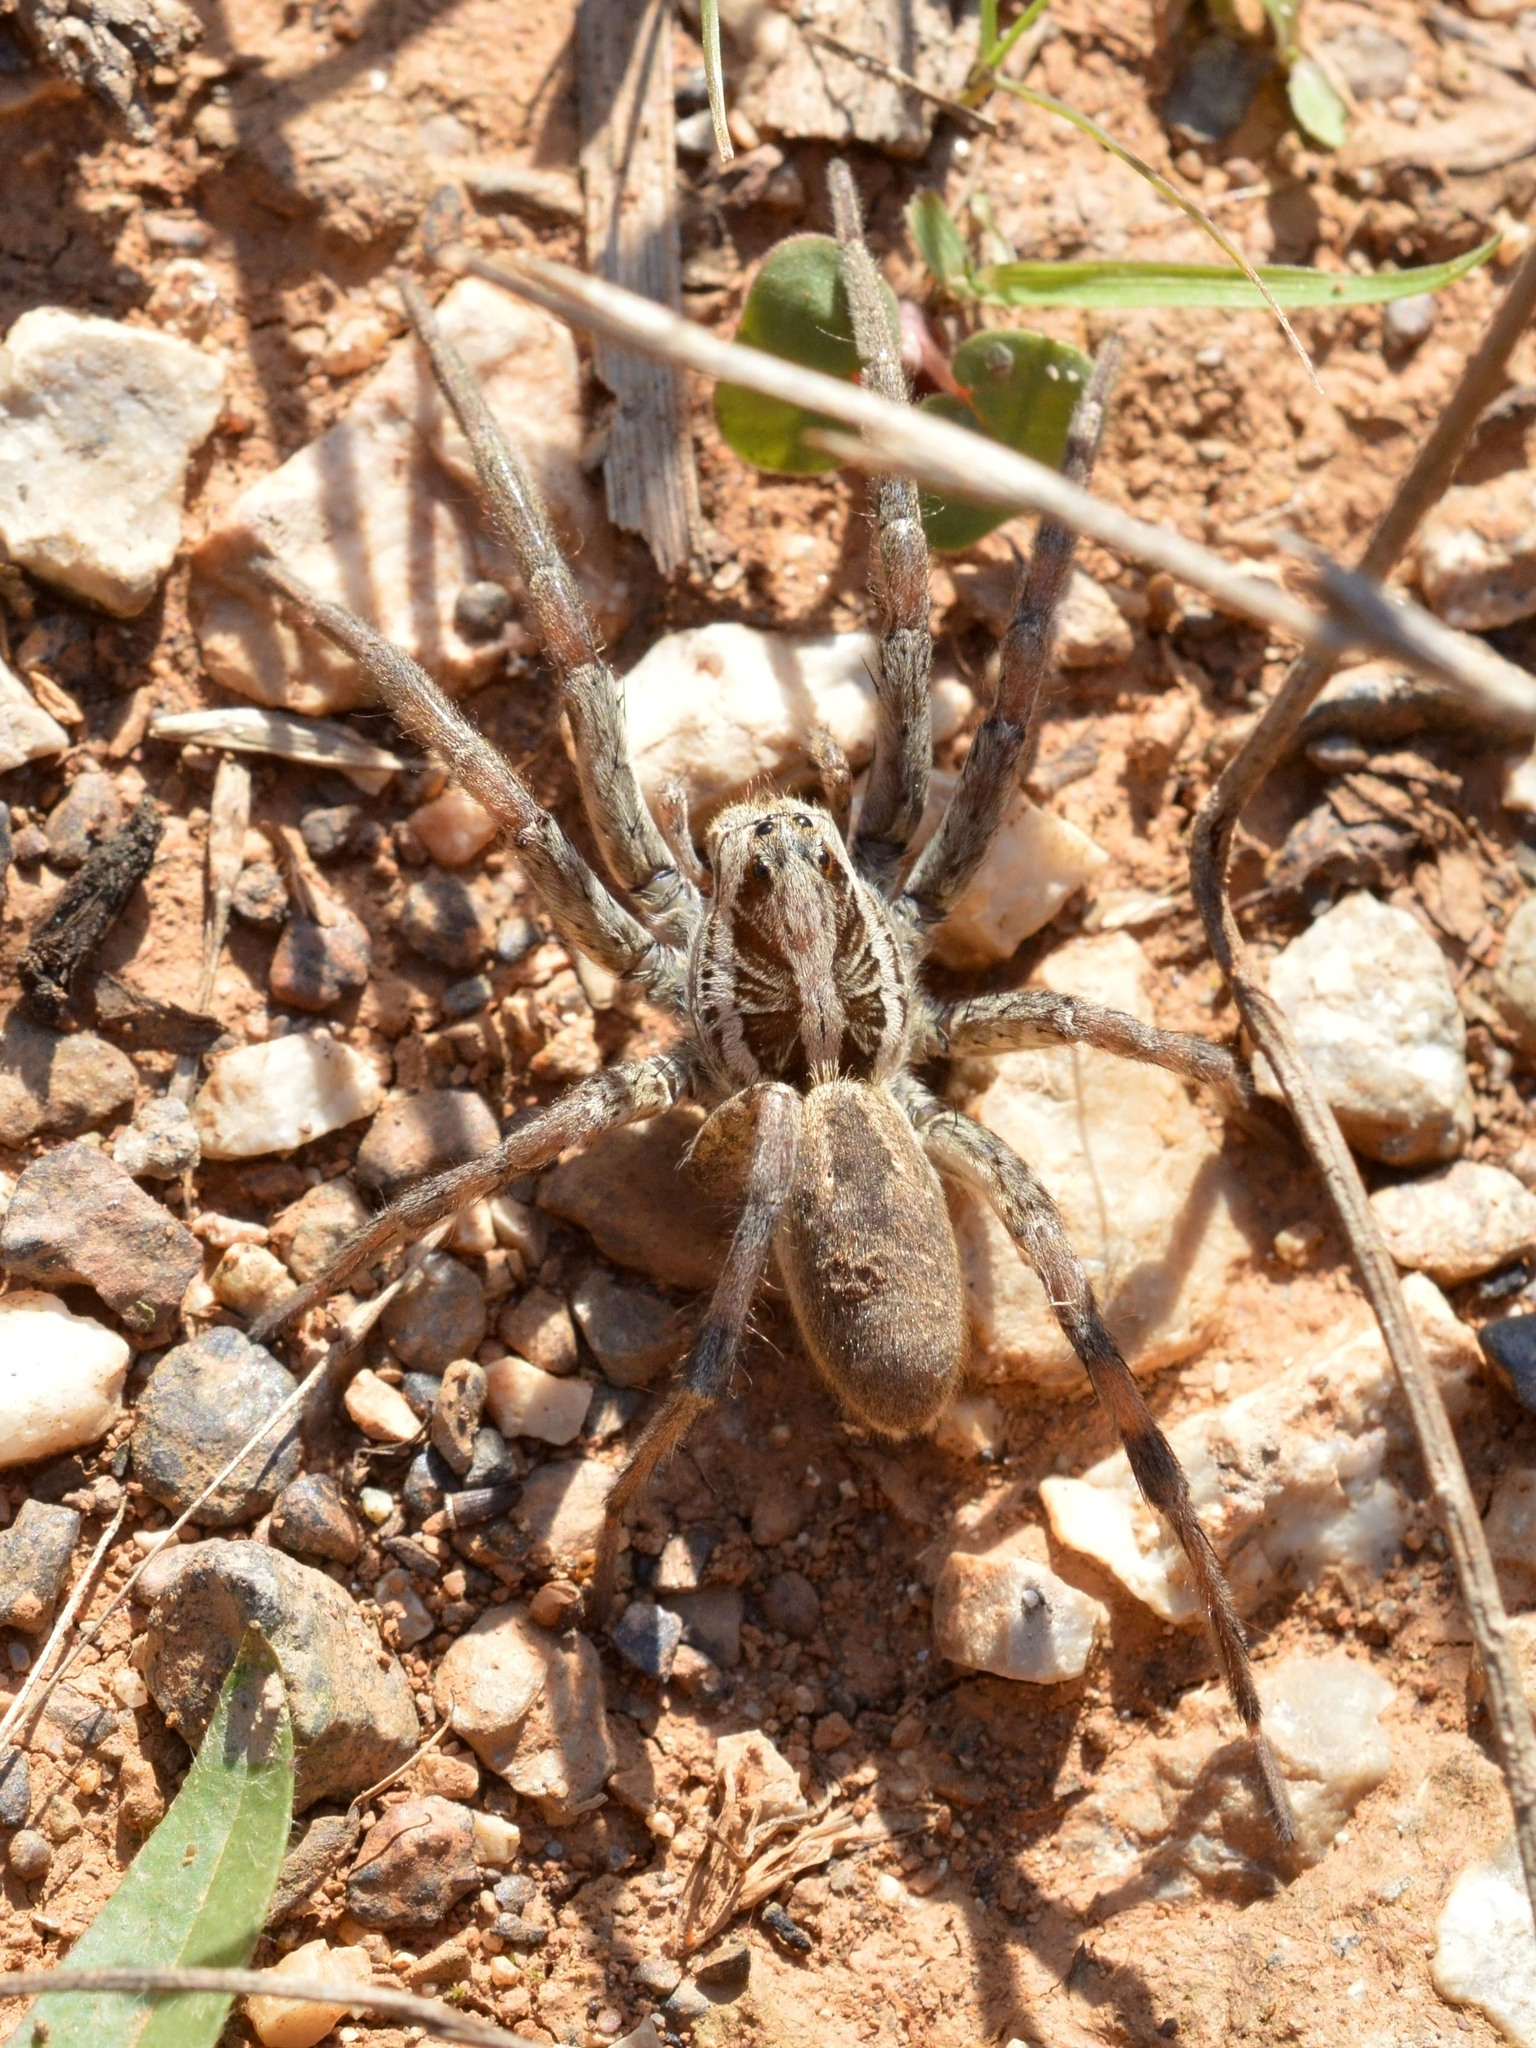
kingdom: Animalia
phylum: Arthropoda
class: Arachnida
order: Araneae
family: Lycosidae
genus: Hogna
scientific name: Hogna radiata
